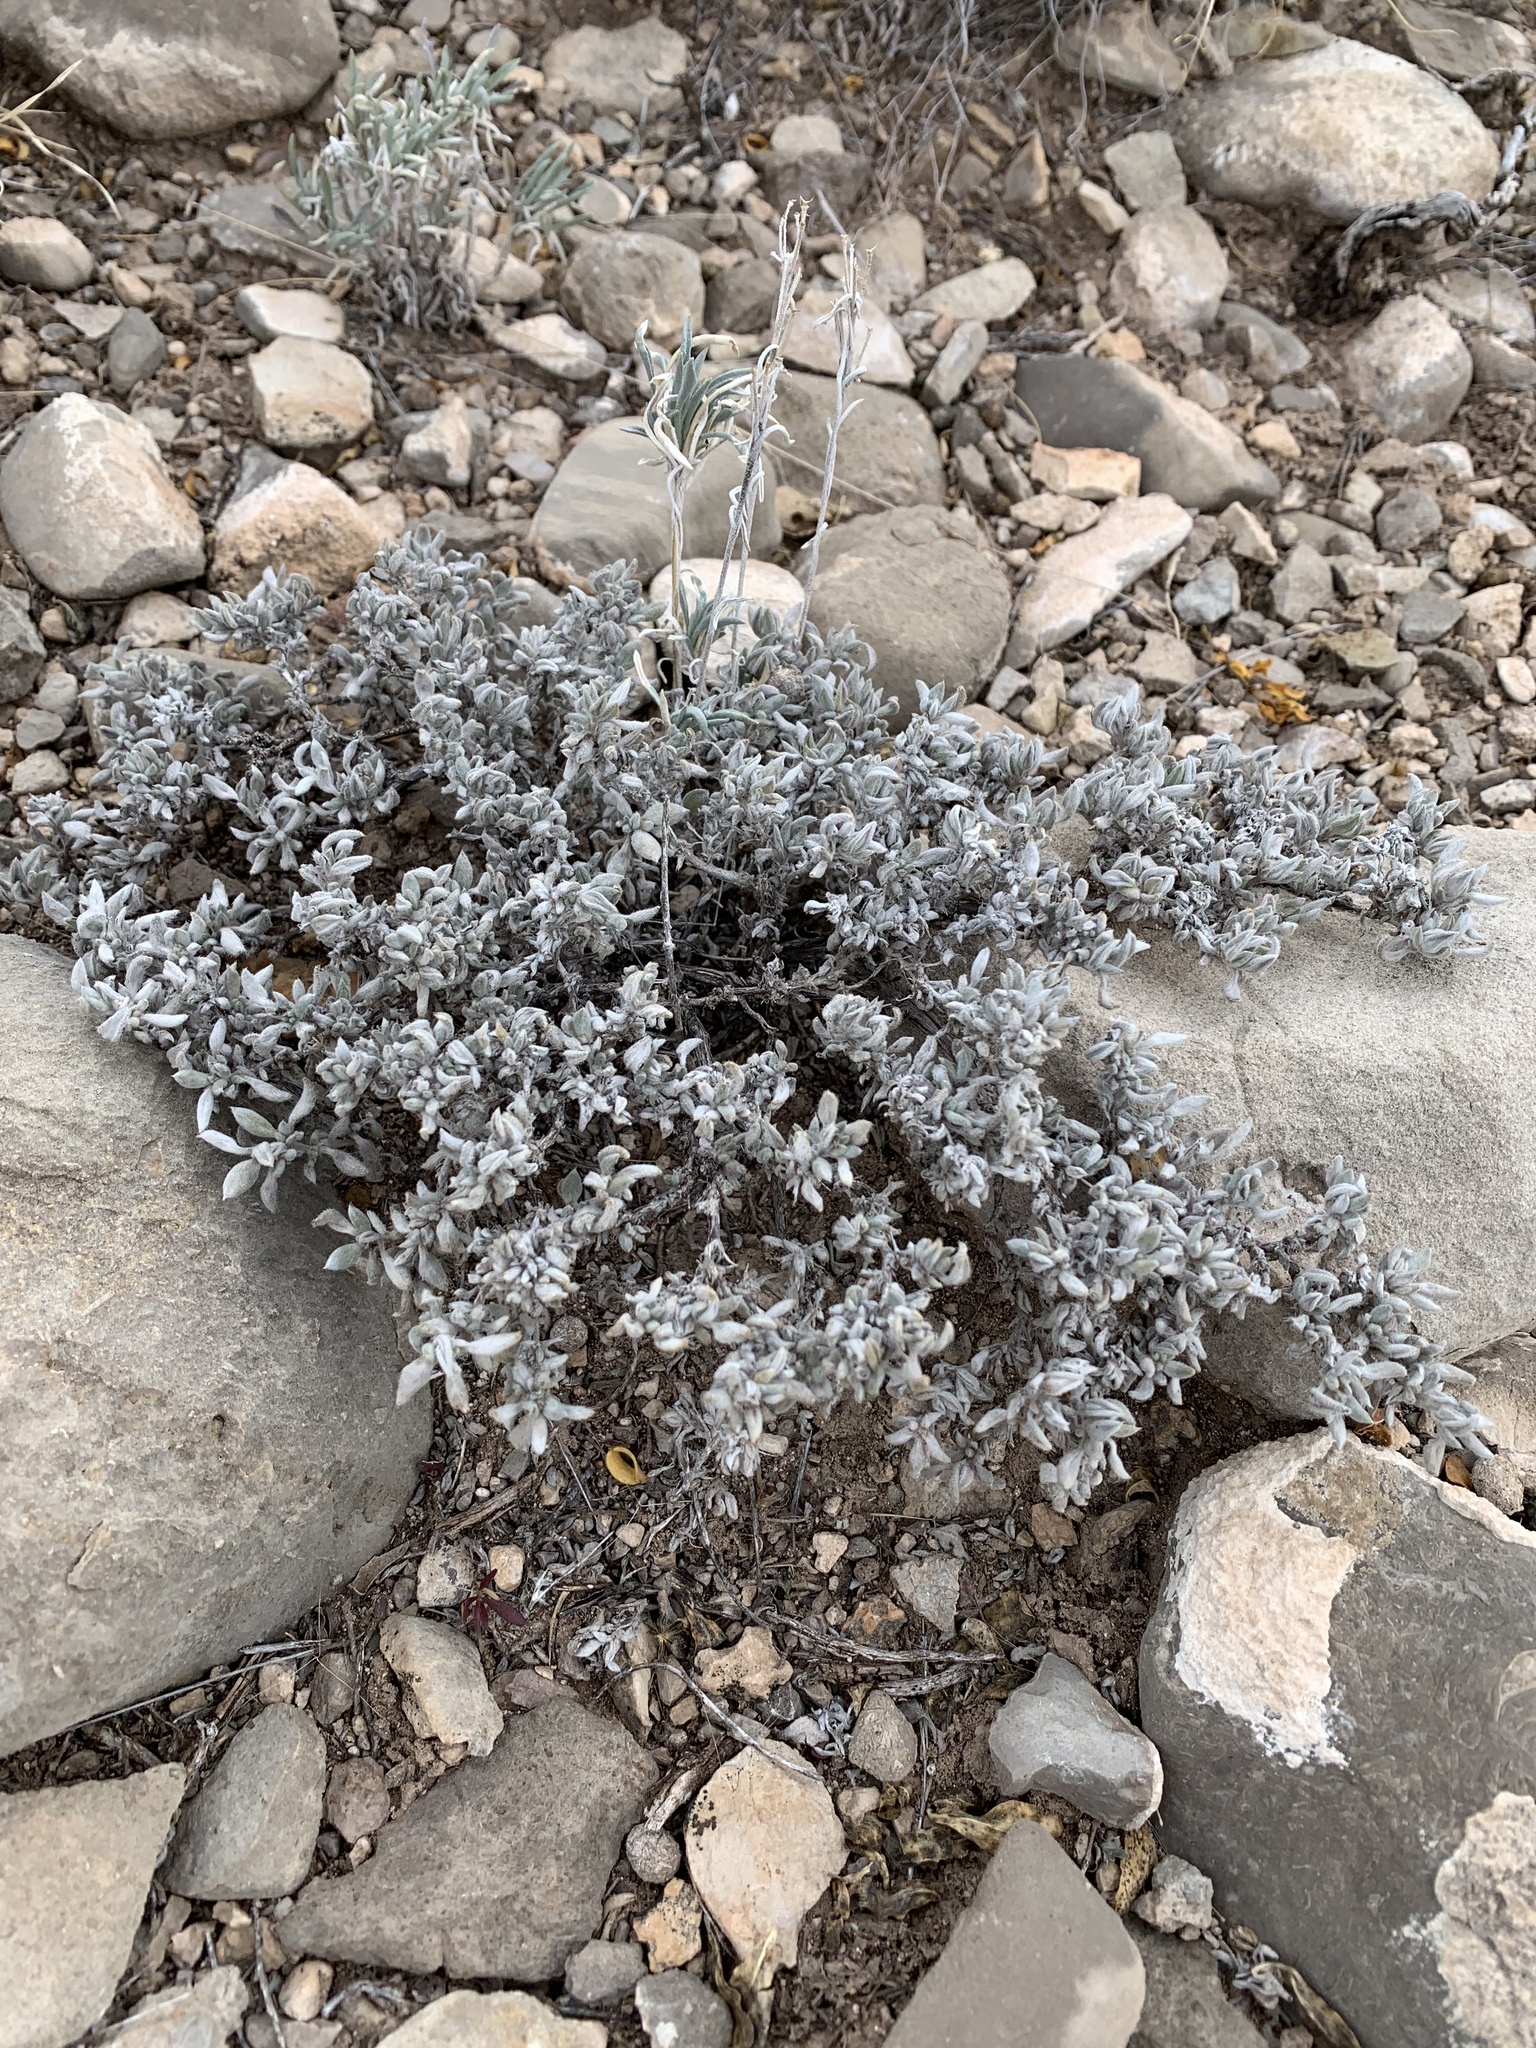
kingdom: Plantae
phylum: Tracheophyta
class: Magnoliopsida
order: Boraginales
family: Ehretiaceae
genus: Tiquilia
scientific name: Tiquilia canescens
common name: Hairy tiquilia
